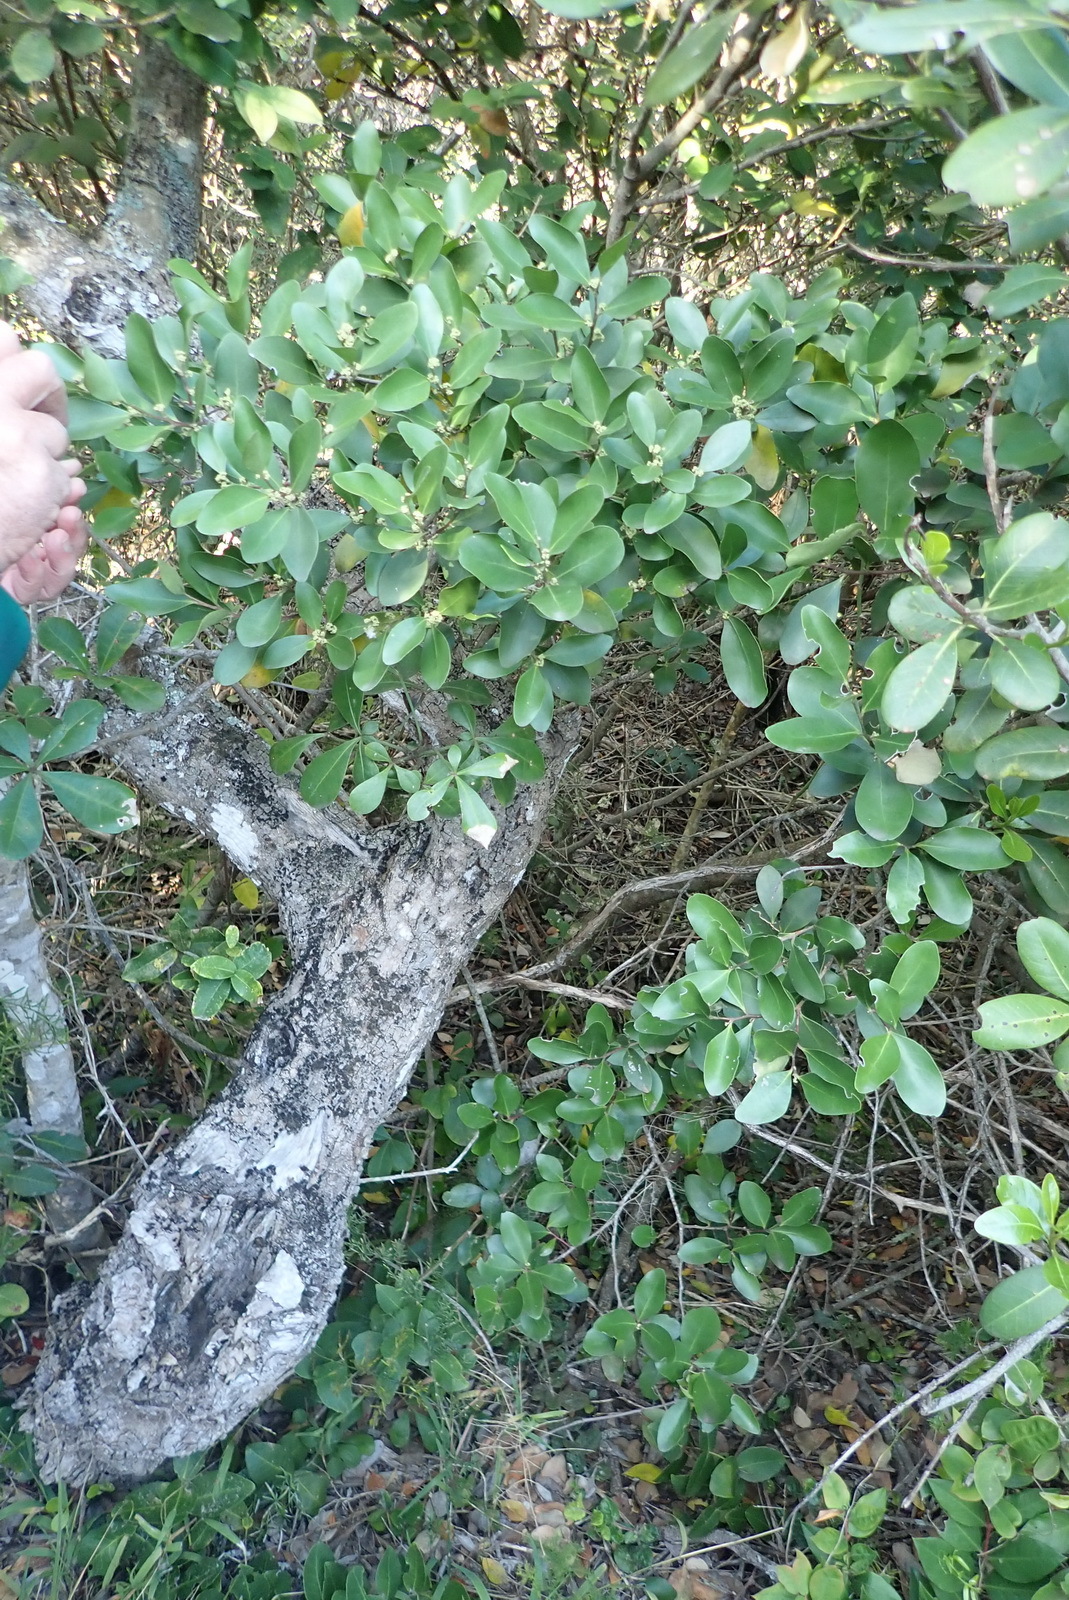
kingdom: Plantae
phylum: Tracheophyta
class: Magnoliopsida
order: Celastrales
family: Celastraceae
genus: Pterocelastrus
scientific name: Pterocelastrus tricuspidatus
